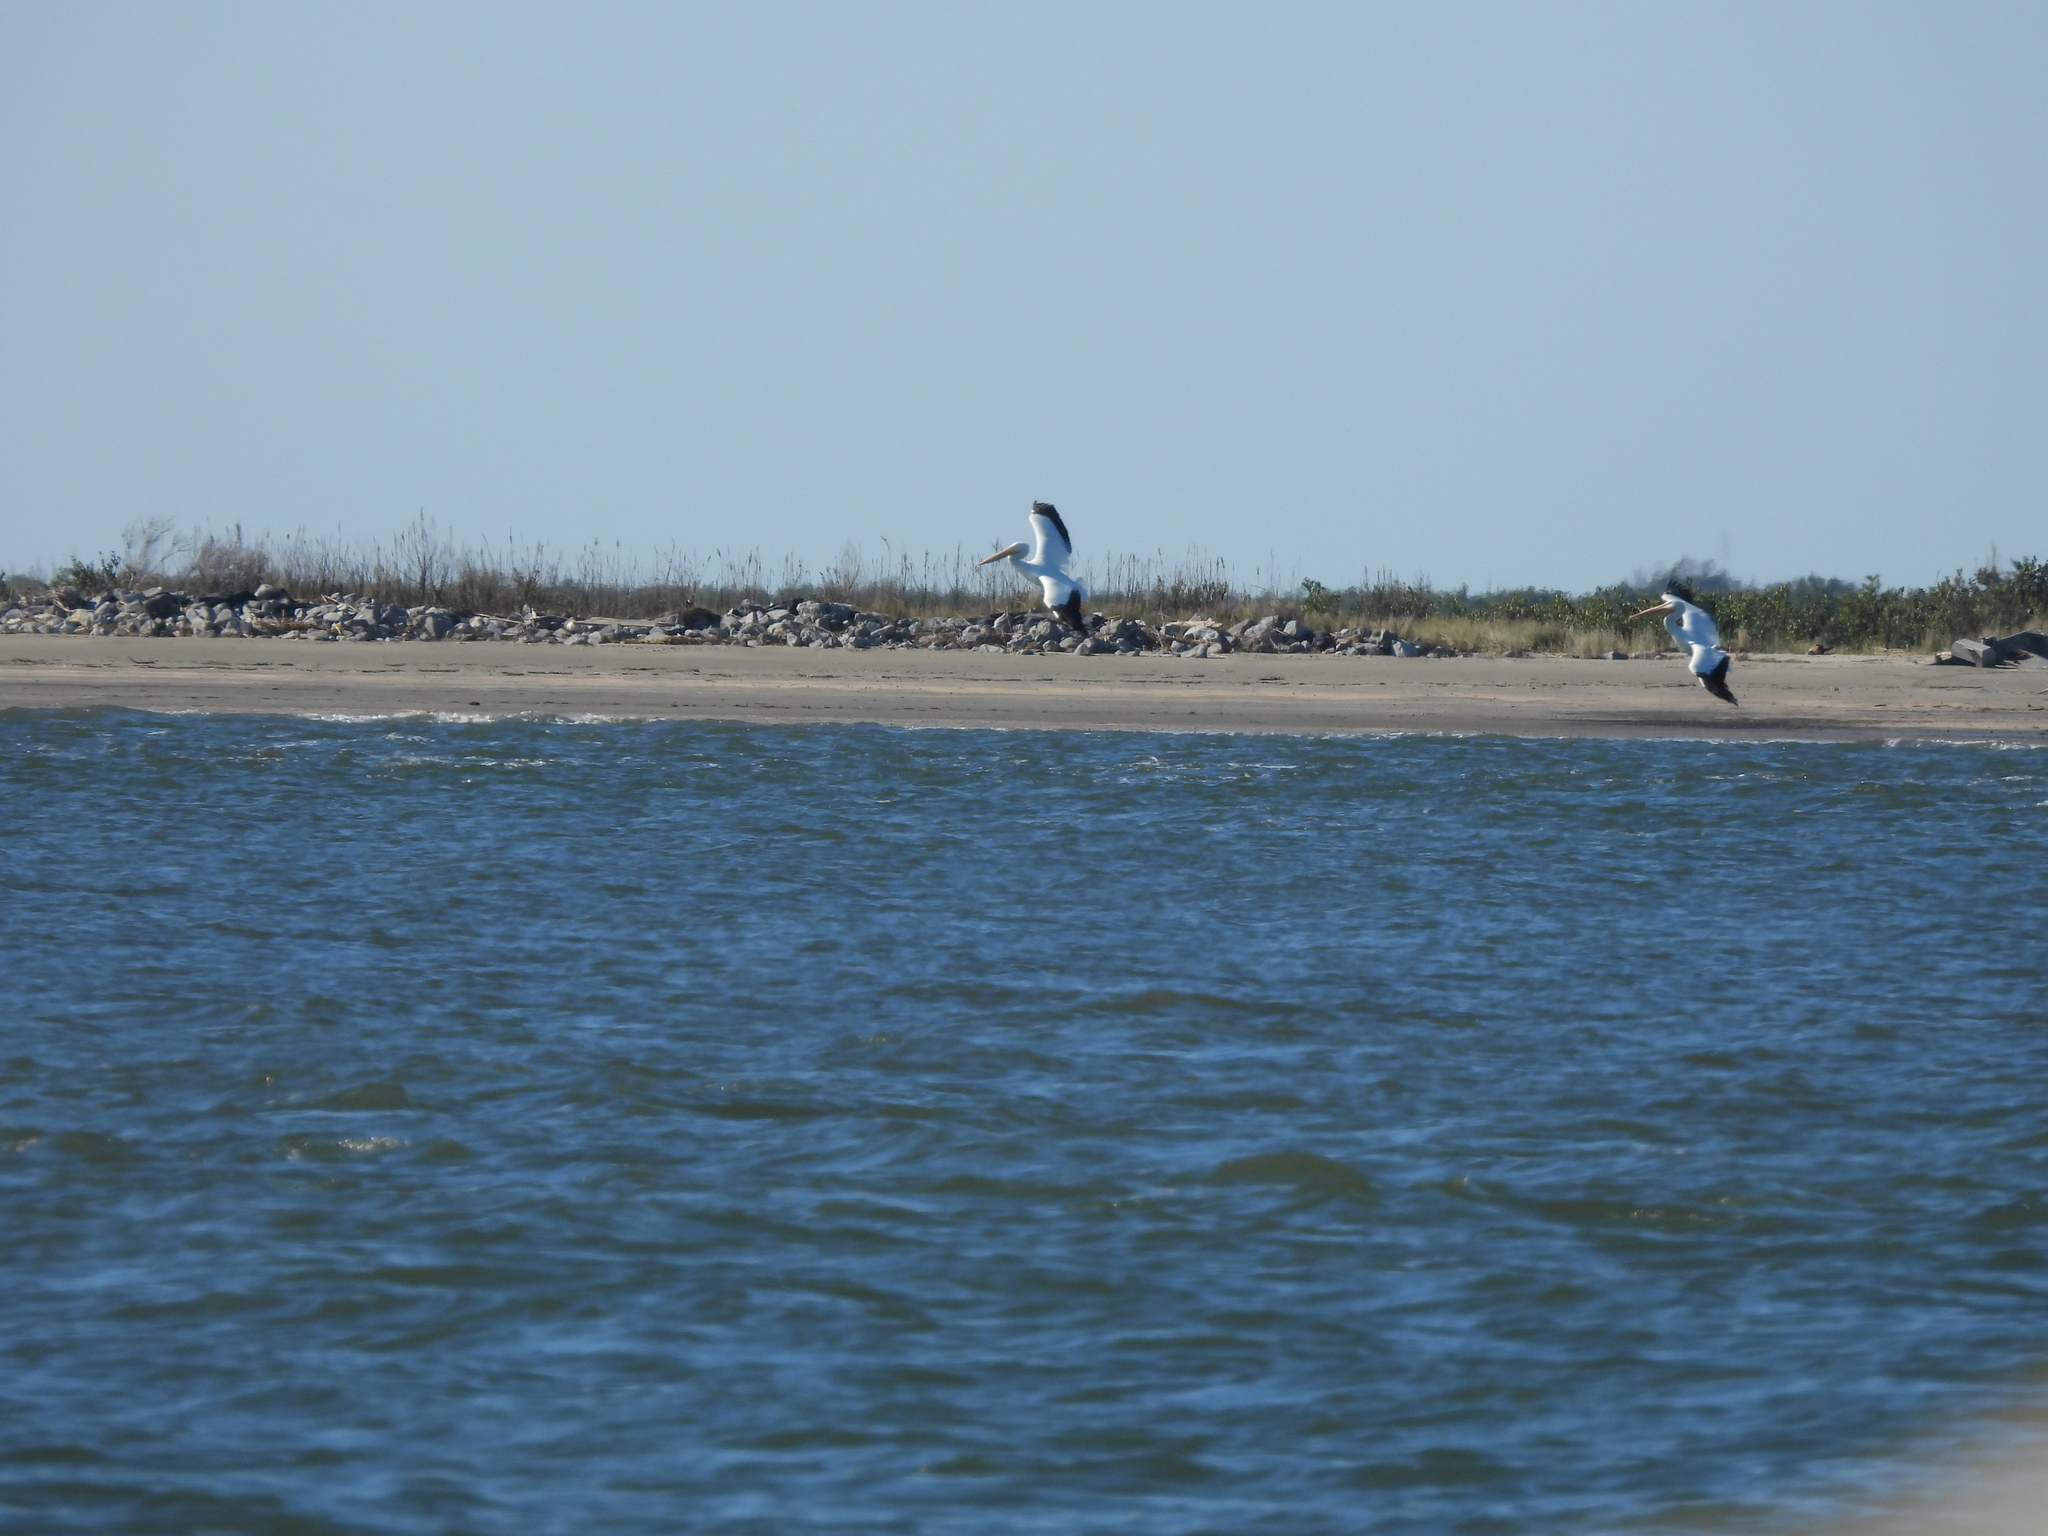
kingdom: Animalia
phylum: Chordata
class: Aves
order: Pelecaniformes
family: Pelecanidae
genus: Pelecanus
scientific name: Pelecanus erythrorhynchos
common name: American white pelican
